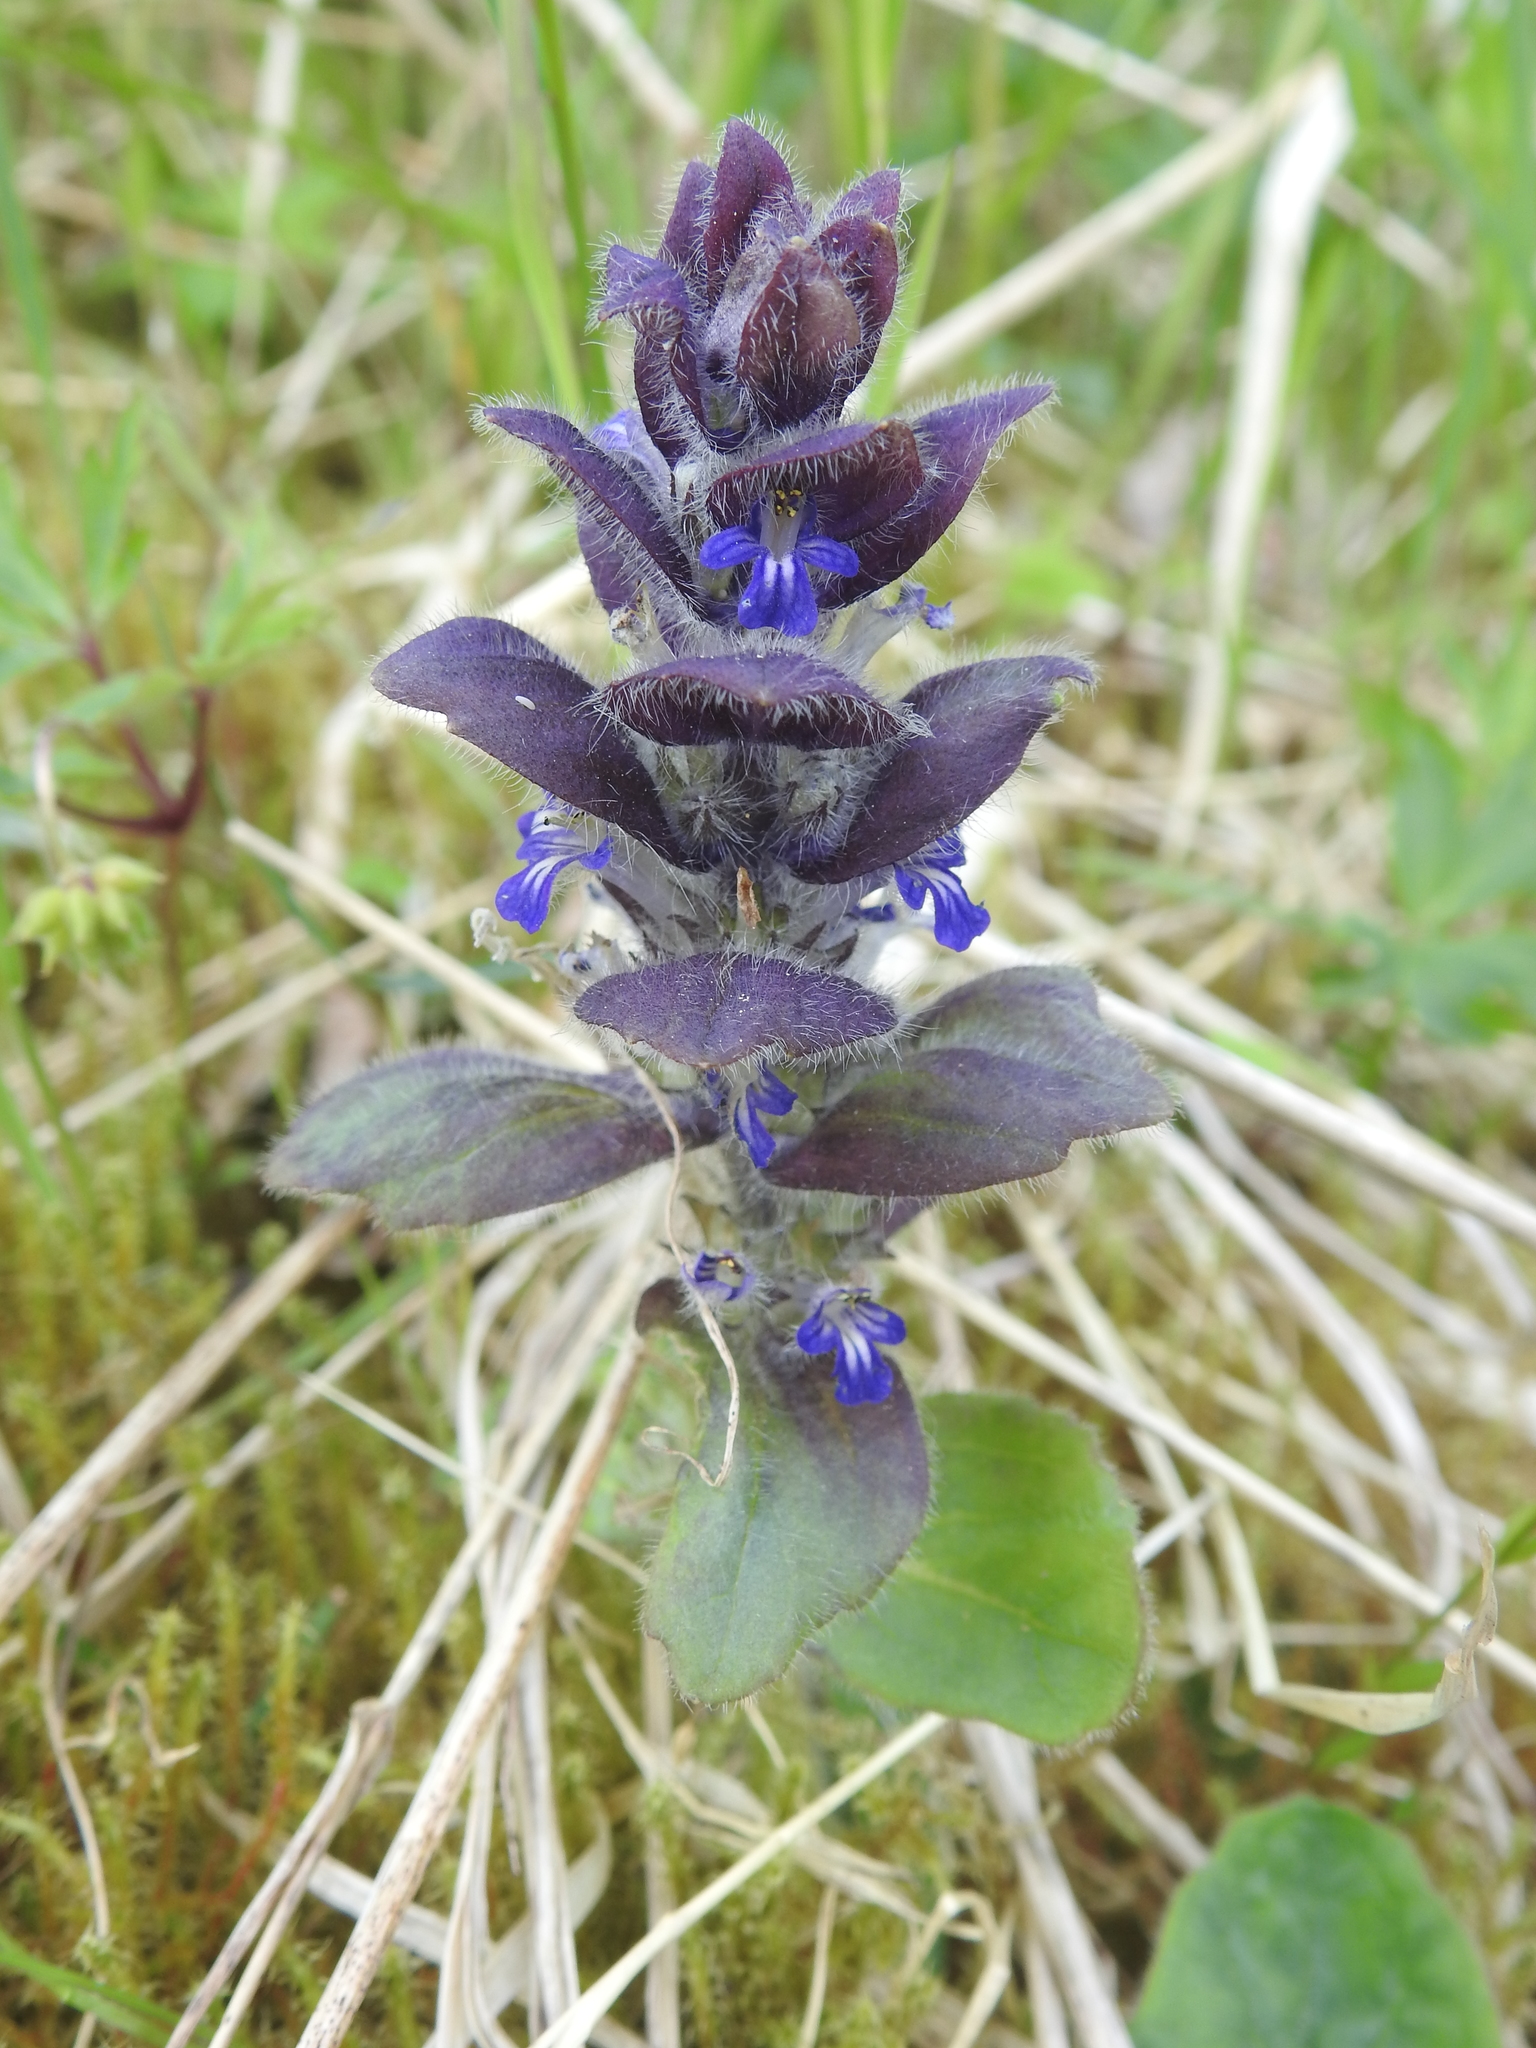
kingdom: Plantae
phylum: Tracheophyta
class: Magnoliopsida
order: Lamiales
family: Lamiaceae
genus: Ajuga
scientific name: Ajuga pyramidalis
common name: Pyramid bugle
